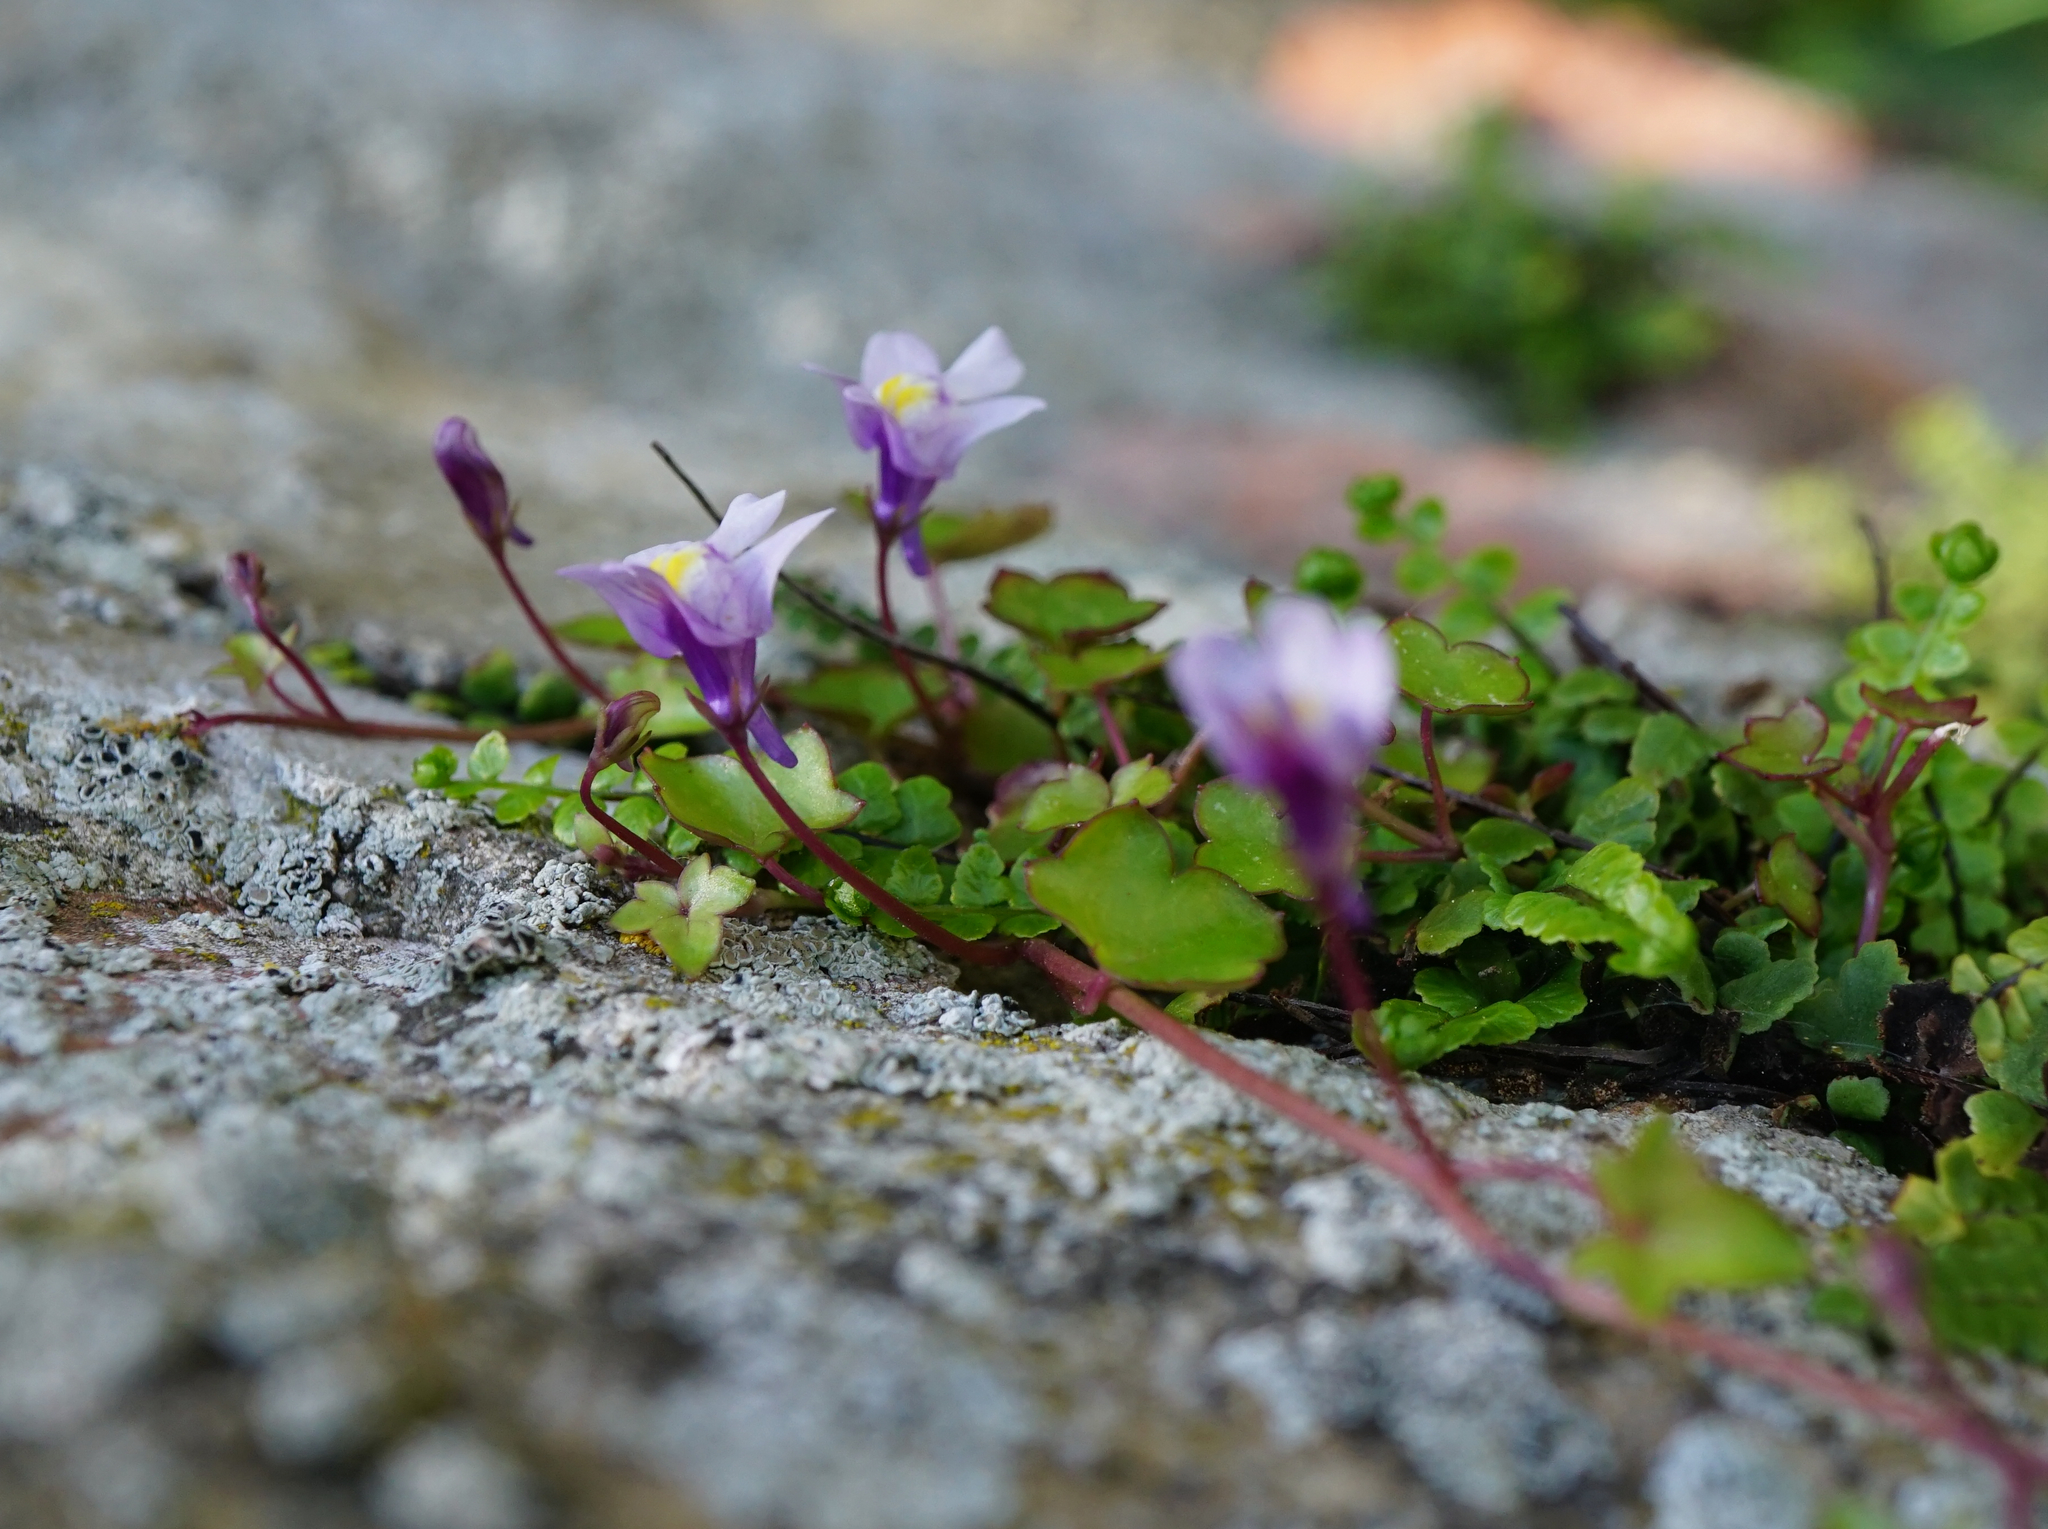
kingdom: Plantae
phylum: Tracheophyta
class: Magnoliopsida
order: Lamiales
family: Plantaginaceae
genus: Cymbalaria
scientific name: Cymbalaria muralis
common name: Ivy-leaved toadflax
